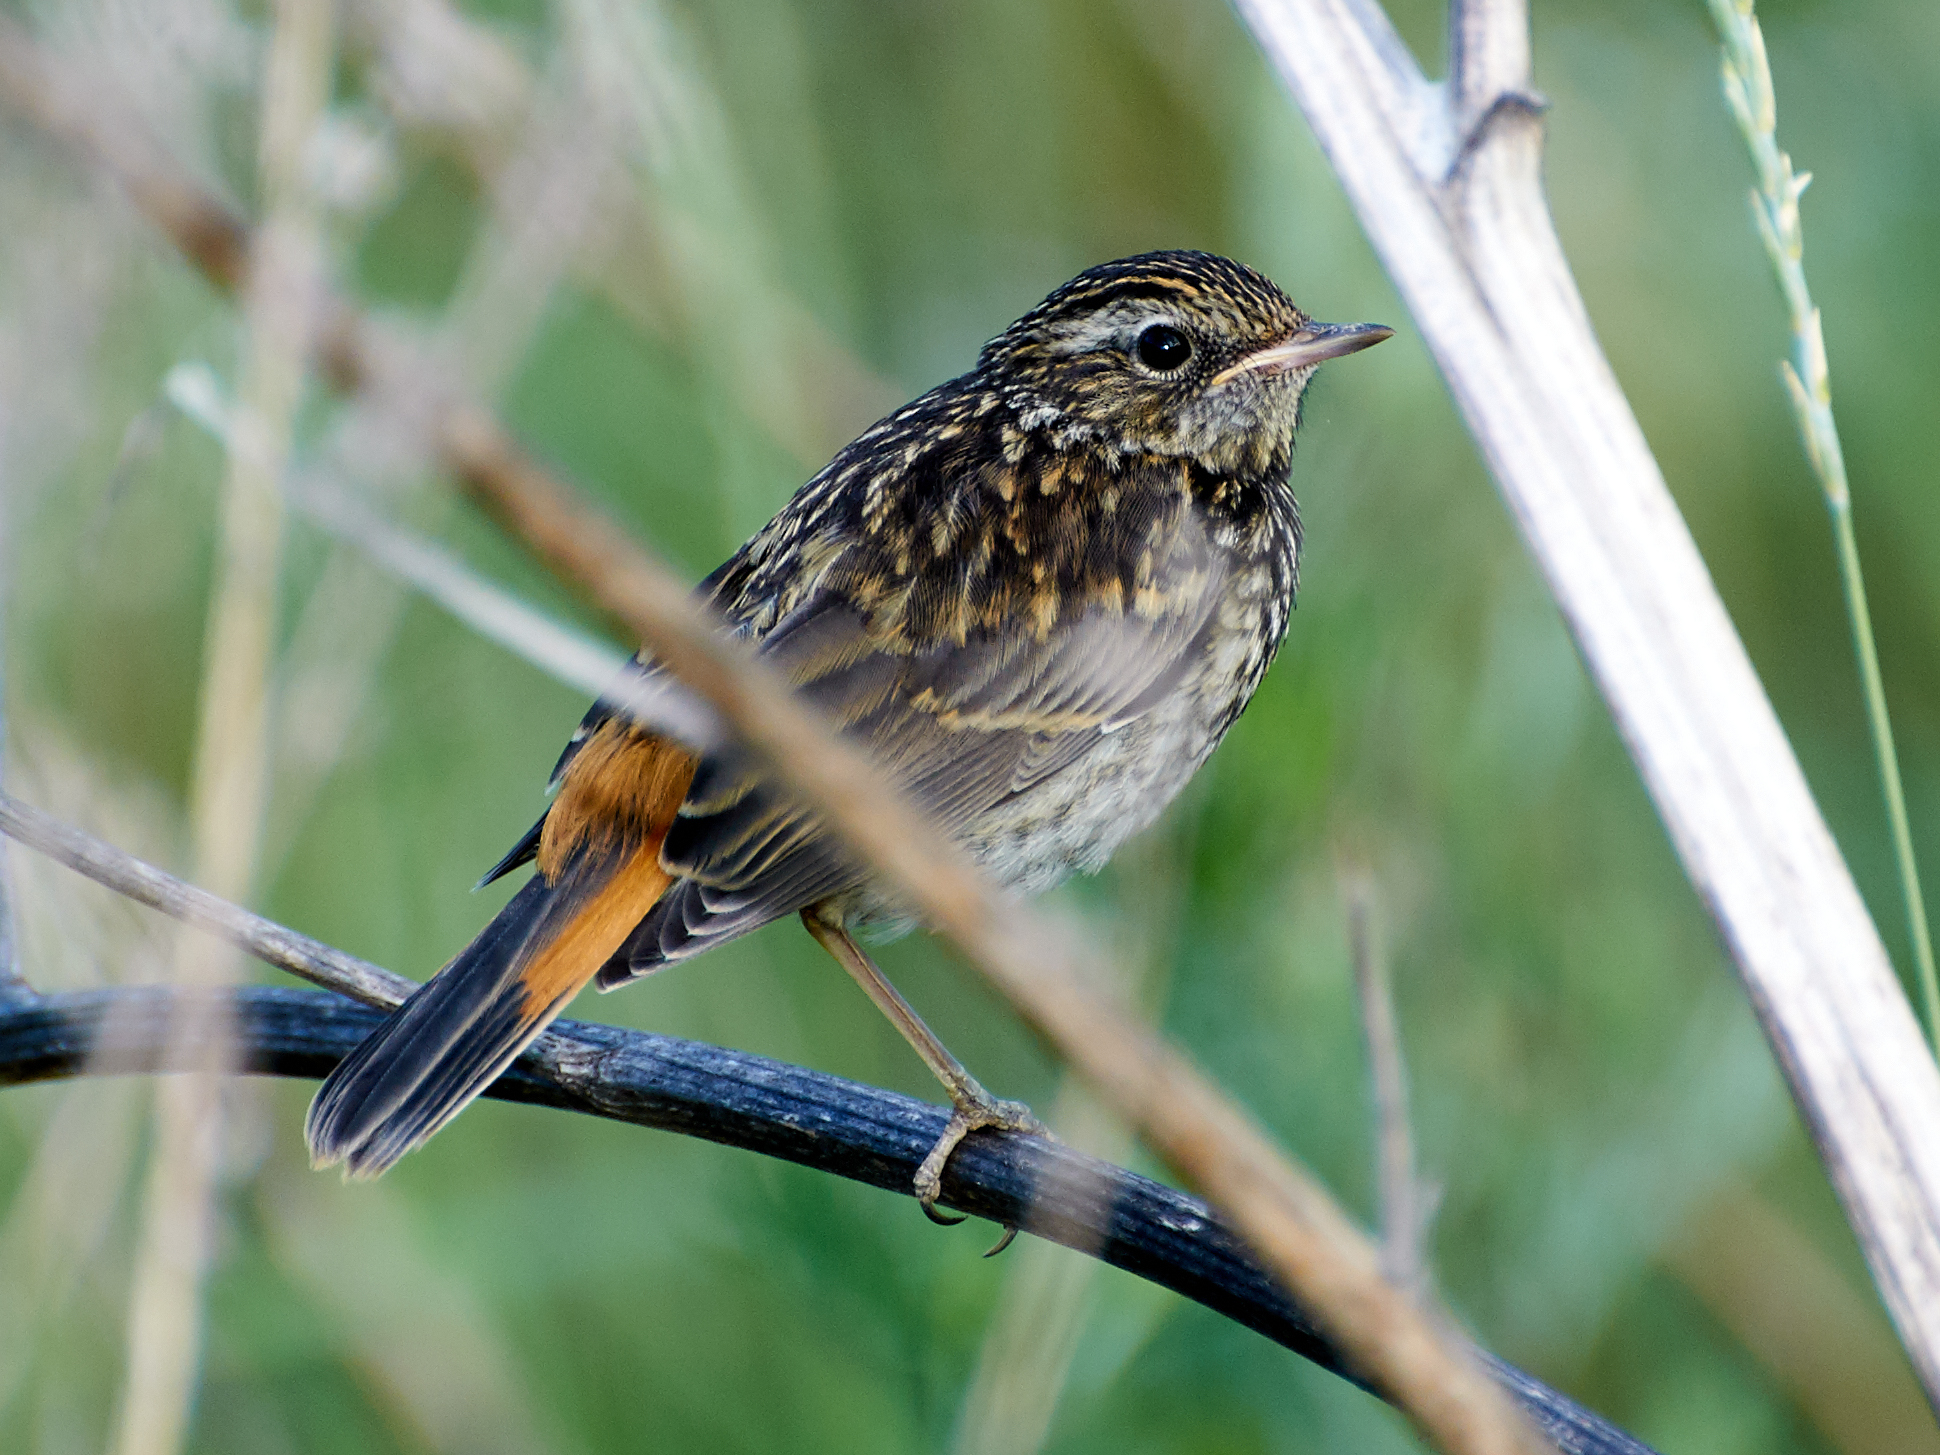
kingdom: Animalia
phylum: Chordata
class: Aves
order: Passeriformes
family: Muscicapidae
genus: Luscinia
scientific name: Luscinia svecica
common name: Bluethroat
